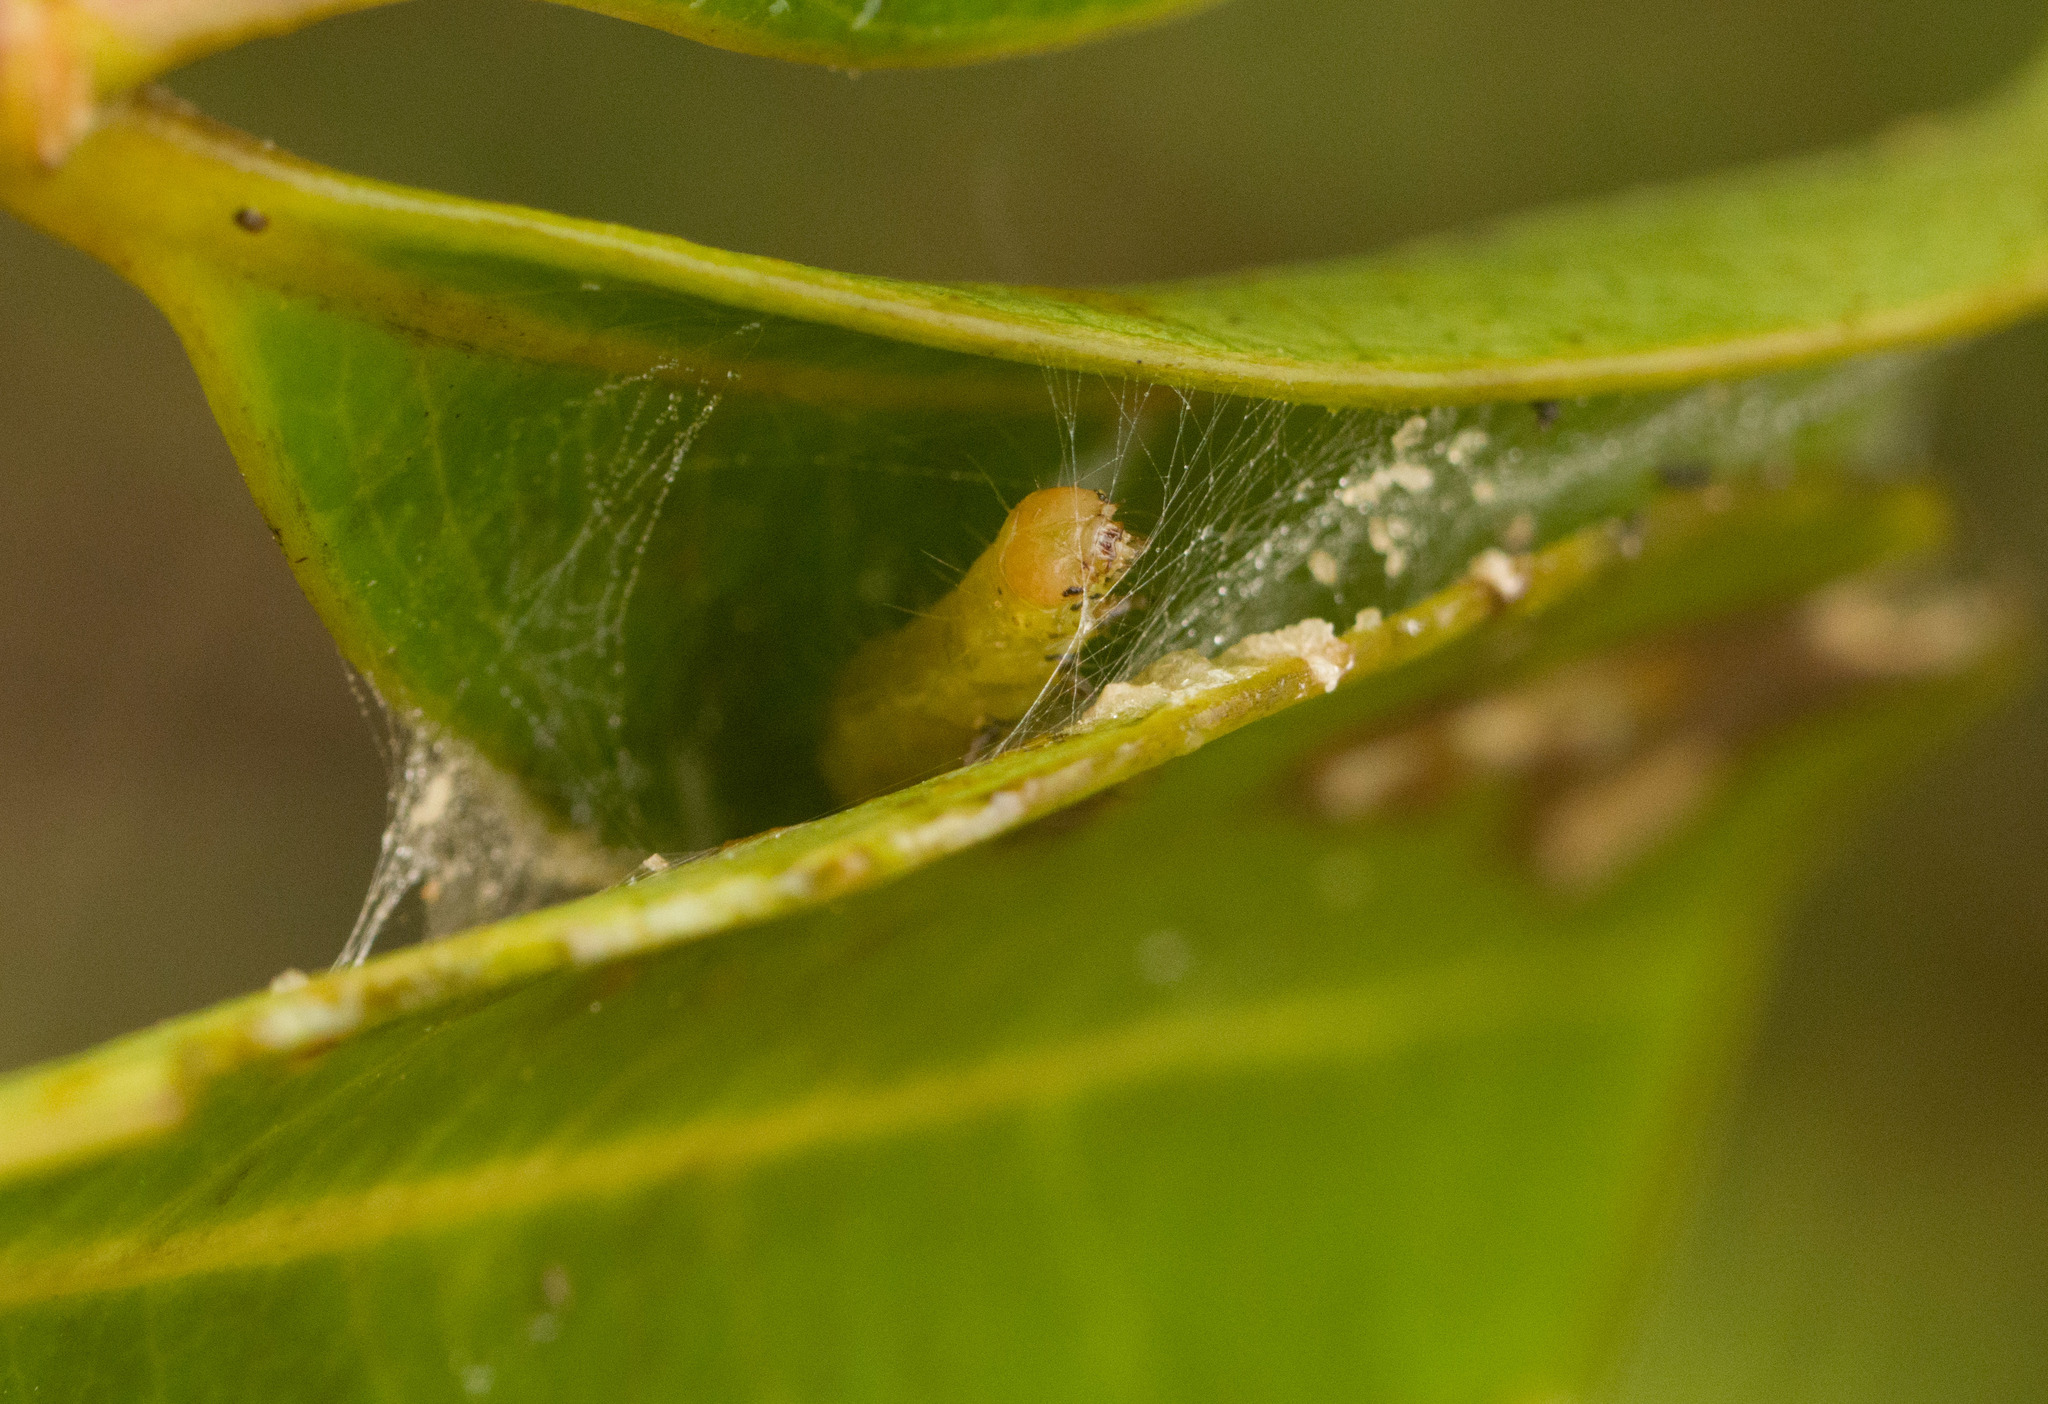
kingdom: Animalia
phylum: Arthropoda
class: Insecta
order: Lepidoptera
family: Tortricidae
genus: Spheterista
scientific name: Spheterista tetraplasandra
